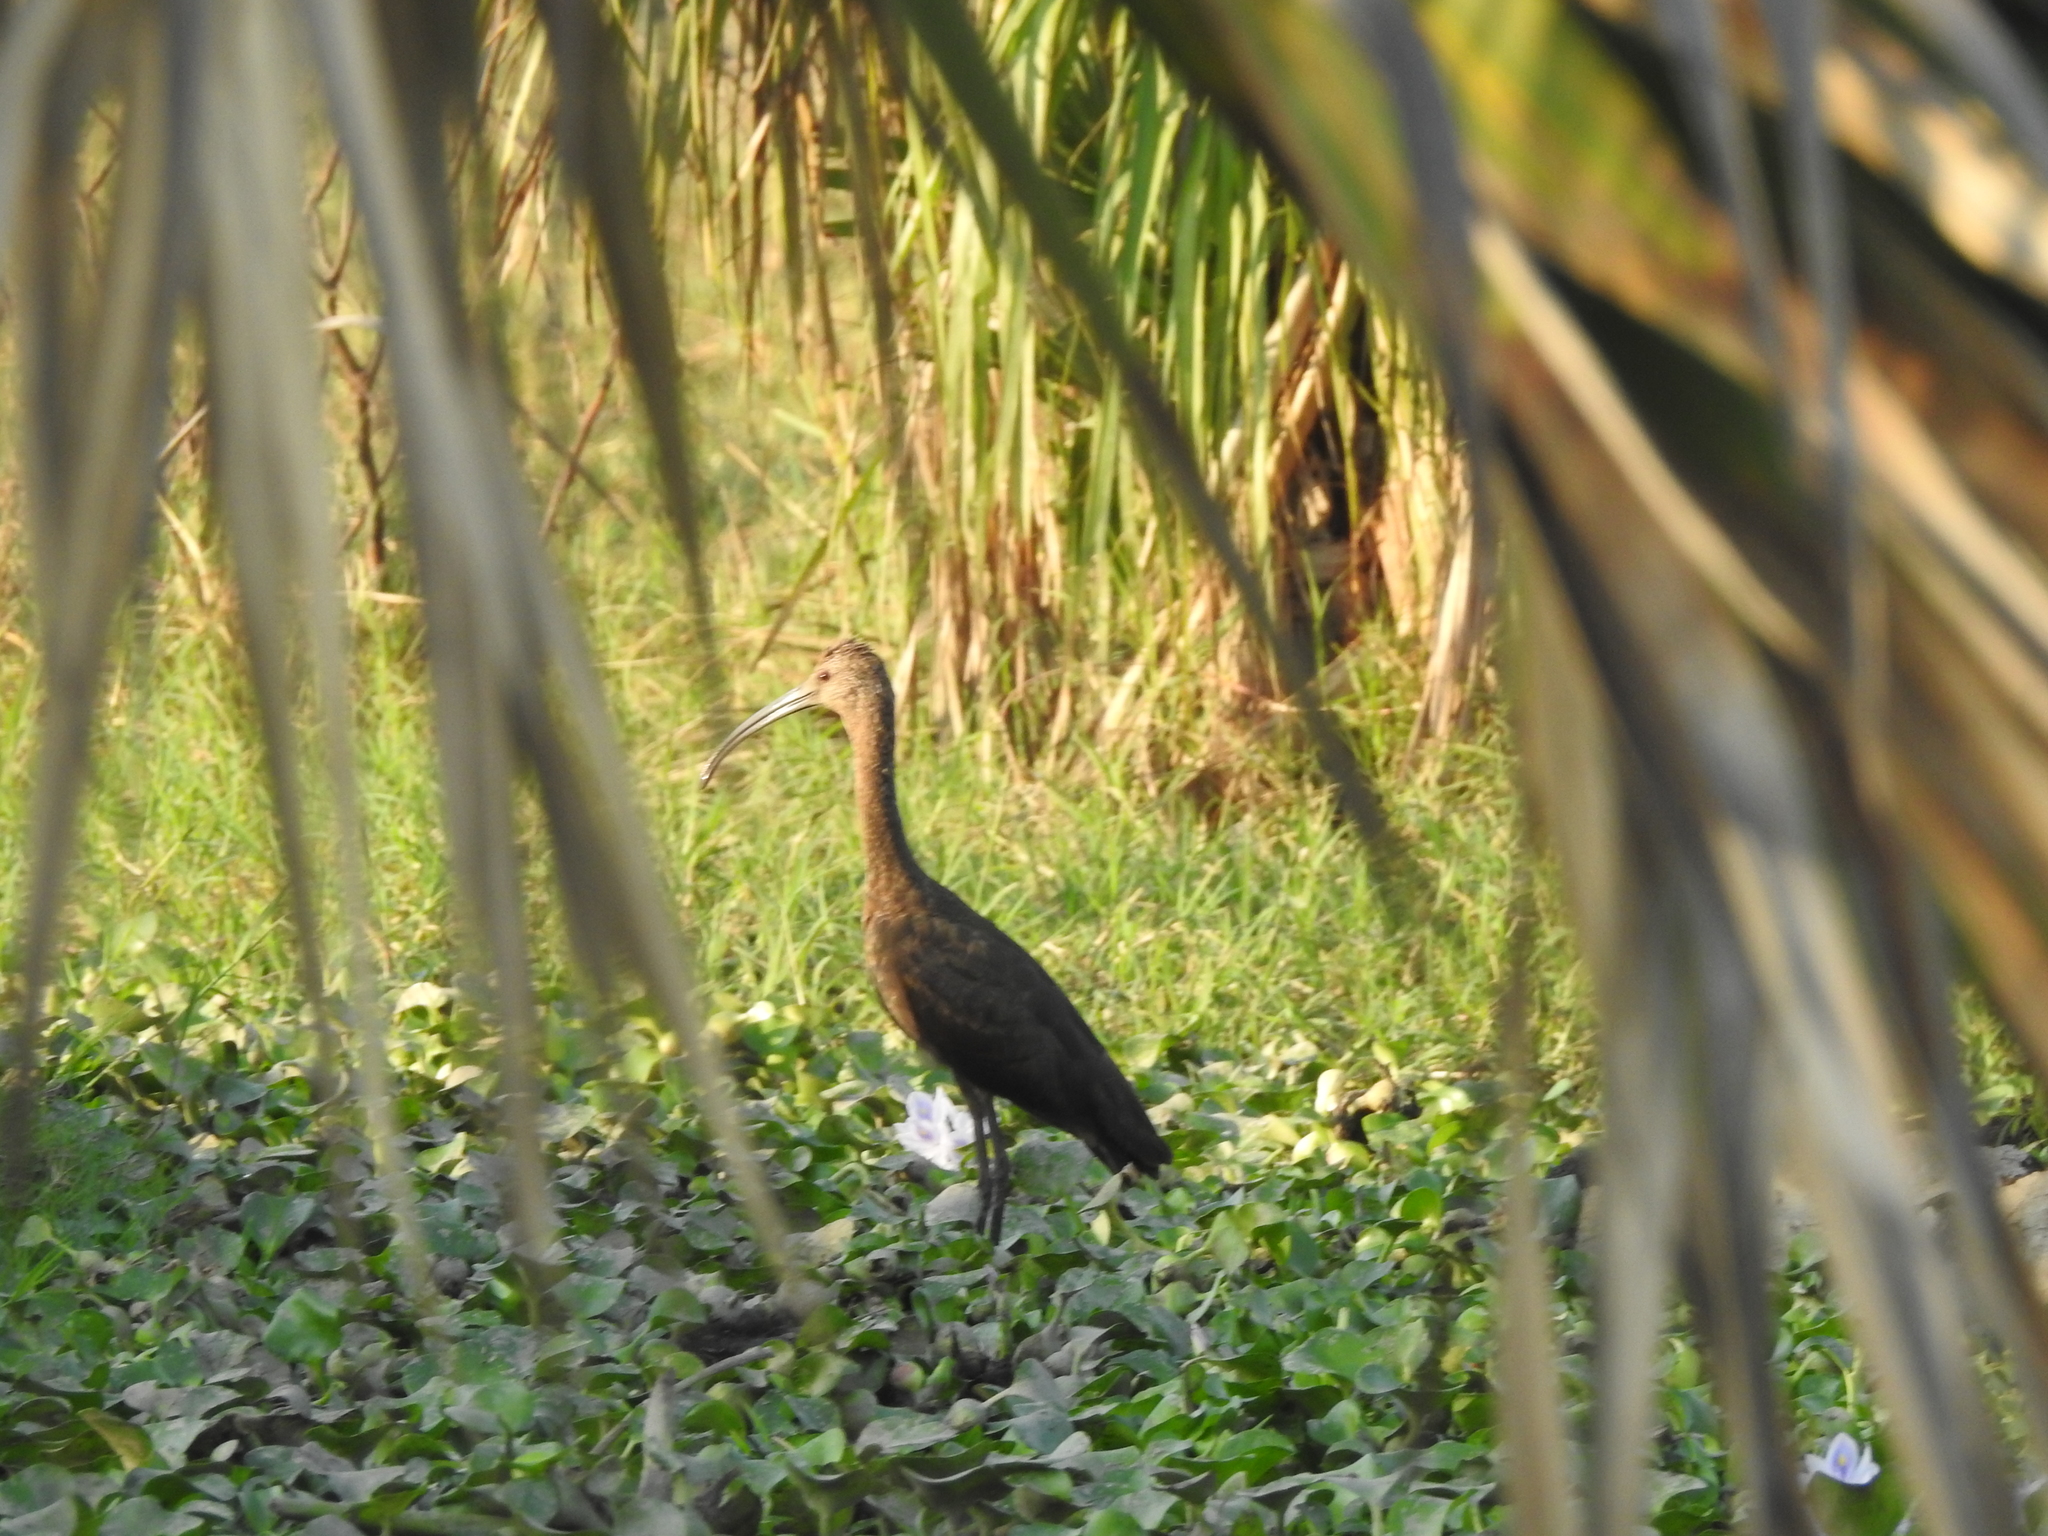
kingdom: Animalia
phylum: Chordata
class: Aves
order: Pelecaniformes
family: Threskiornithidae
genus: Plegadis
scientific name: Plegadis chihi
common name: White-faced ibis
